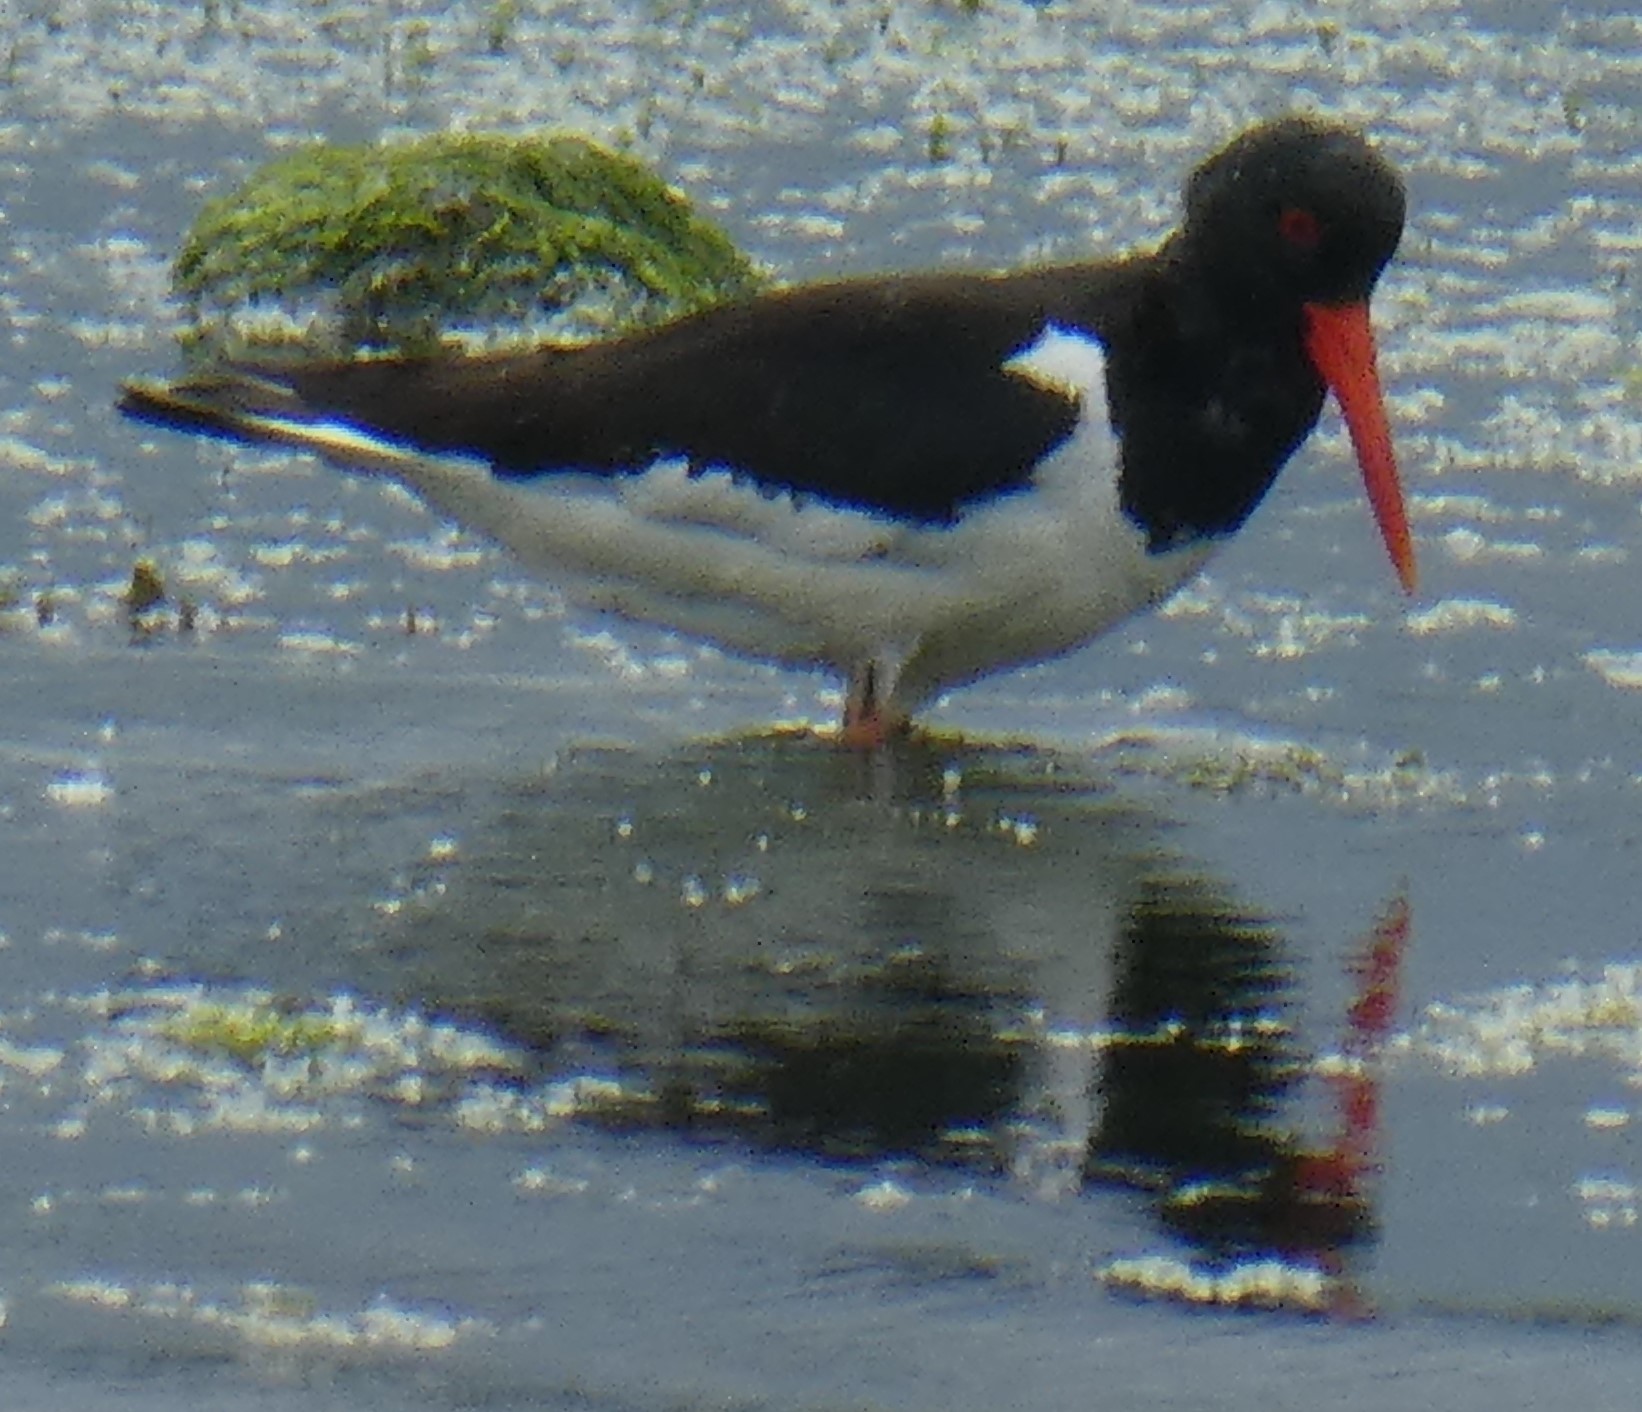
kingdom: Animalia
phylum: Chordata
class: Aves
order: Charadriiformes
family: Haematopodidae
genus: Haematopus
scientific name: Haematopus ostralegus
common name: Eurasian oystercatcher
